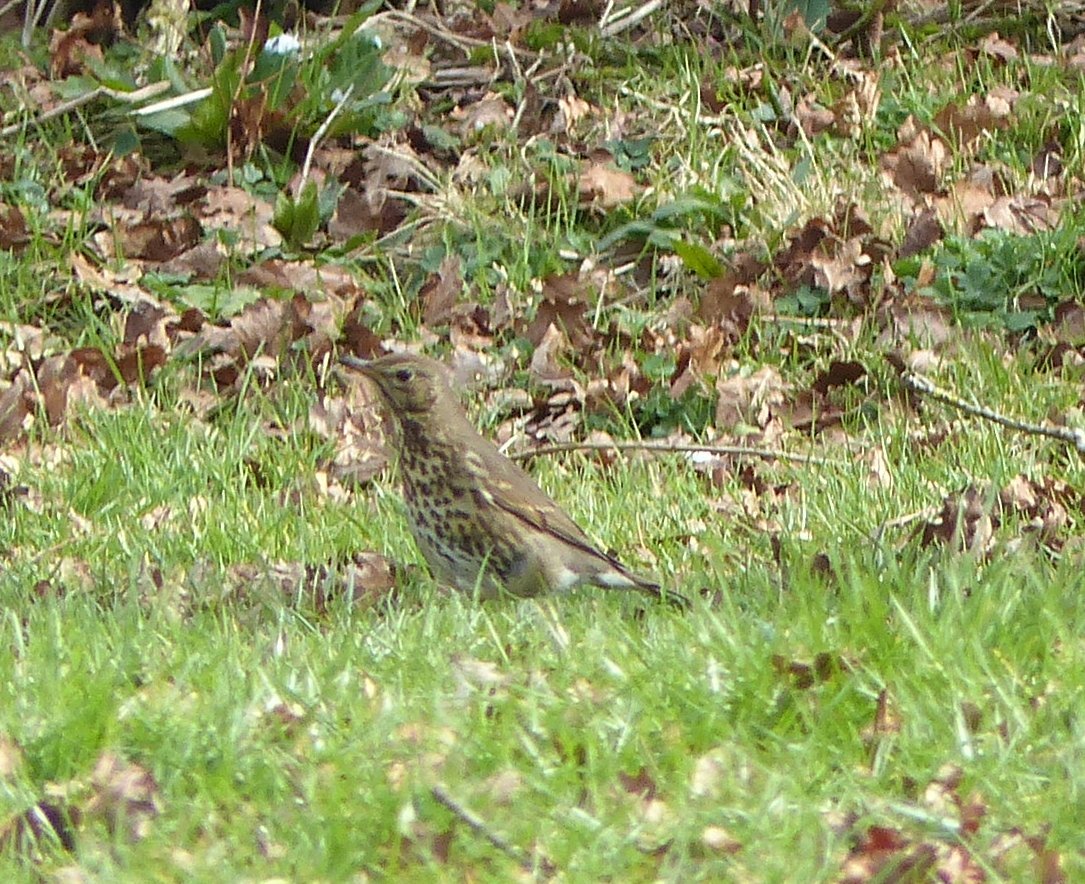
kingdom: Animalia
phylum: Chordata
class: Aves
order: Passeriformes
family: Turdidae
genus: Turdus
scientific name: Turdus philomelos
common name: Song thrush
